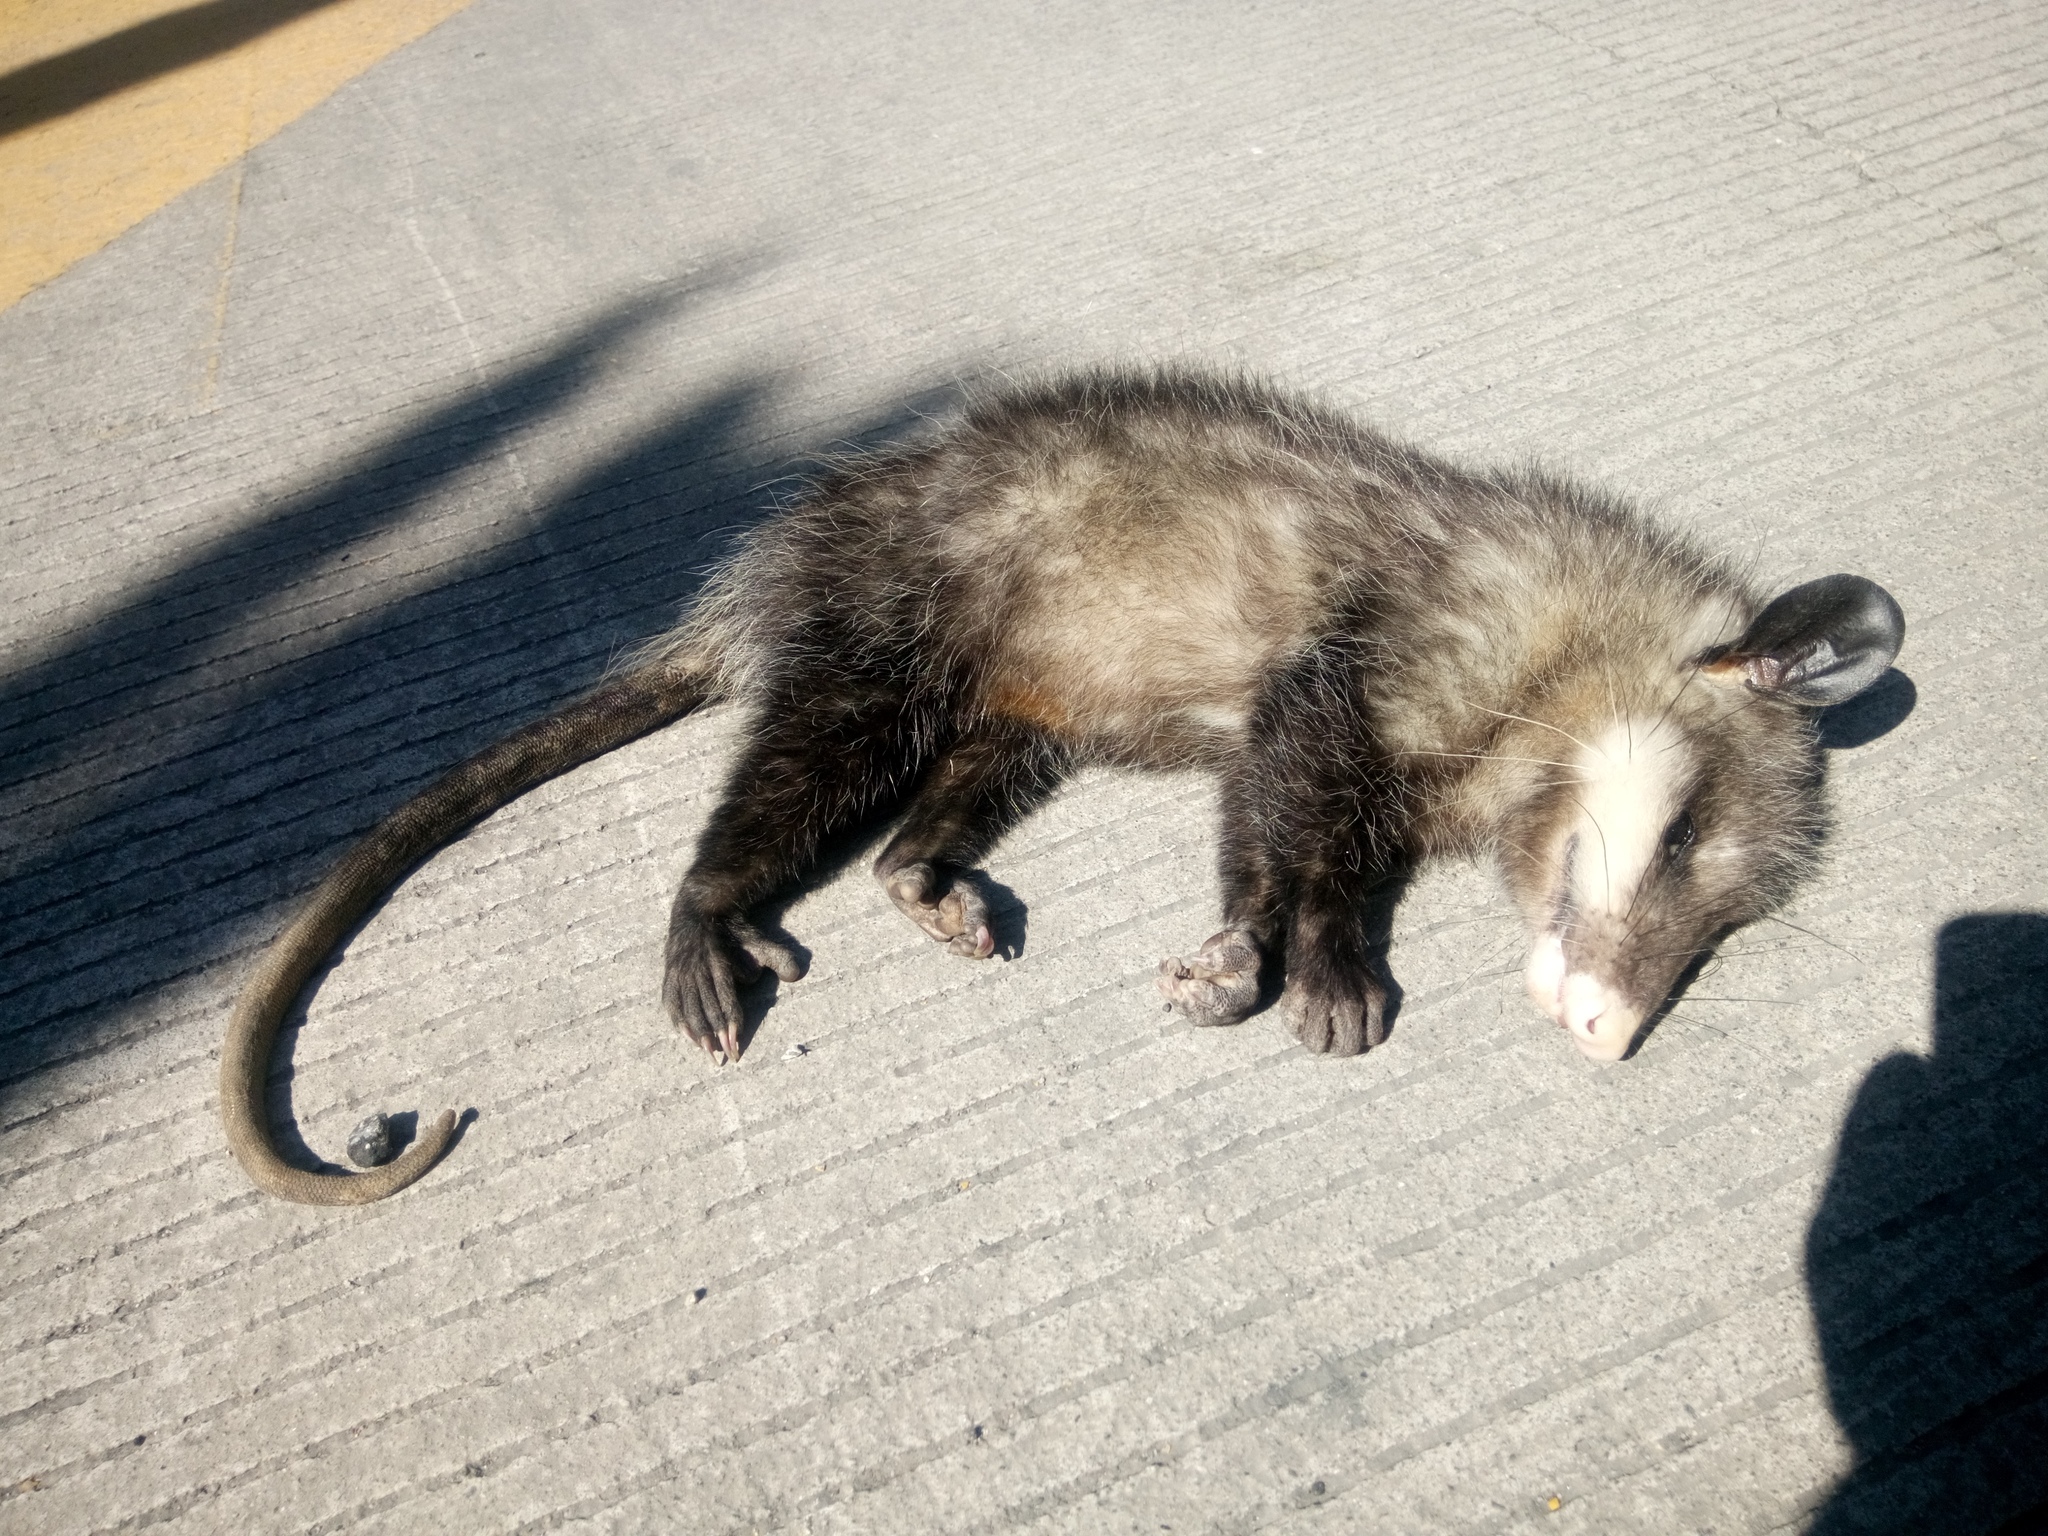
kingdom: Animalia
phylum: Chordata
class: Mammalia
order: Didelphimorphia
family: Didelphidae
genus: Didelphis
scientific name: Didelphis virginiana
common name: Virginia opossum
